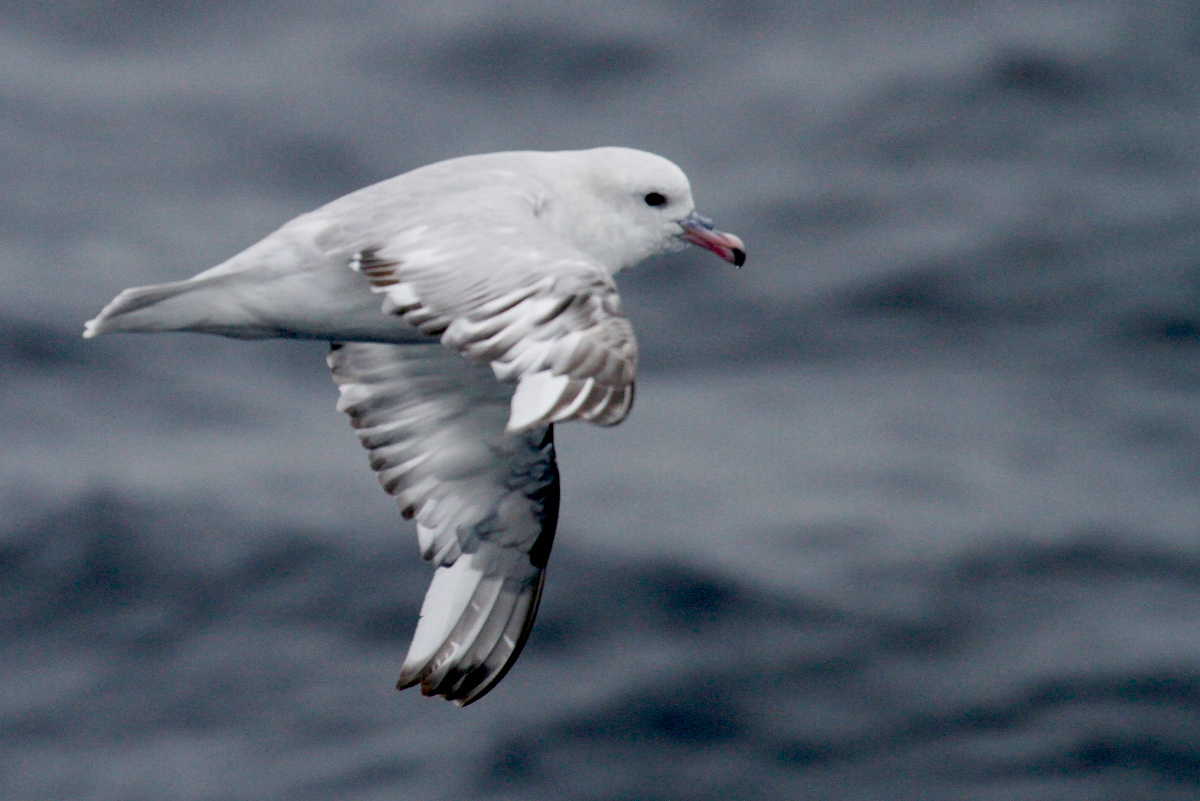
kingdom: Animalia
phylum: Chordata
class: Aves
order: Procellariiformes
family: Procellariidae
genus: Fulmarus
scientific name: Fulmarus glacialoides
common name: Southern fulmar
